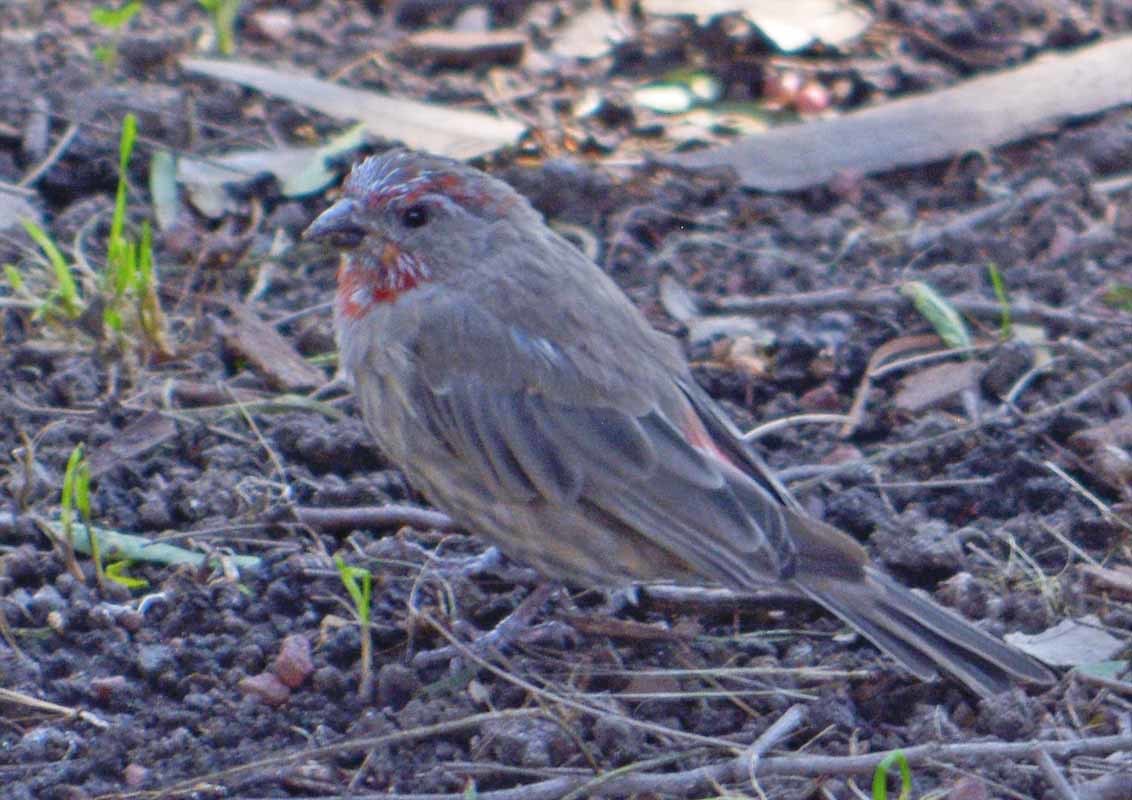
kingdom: Animalia
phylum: Chordata
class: Aves
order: Passeriformes
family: Fringillidae
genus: Haemorhous
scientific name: Haemorhous mexicanus
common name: House finch
